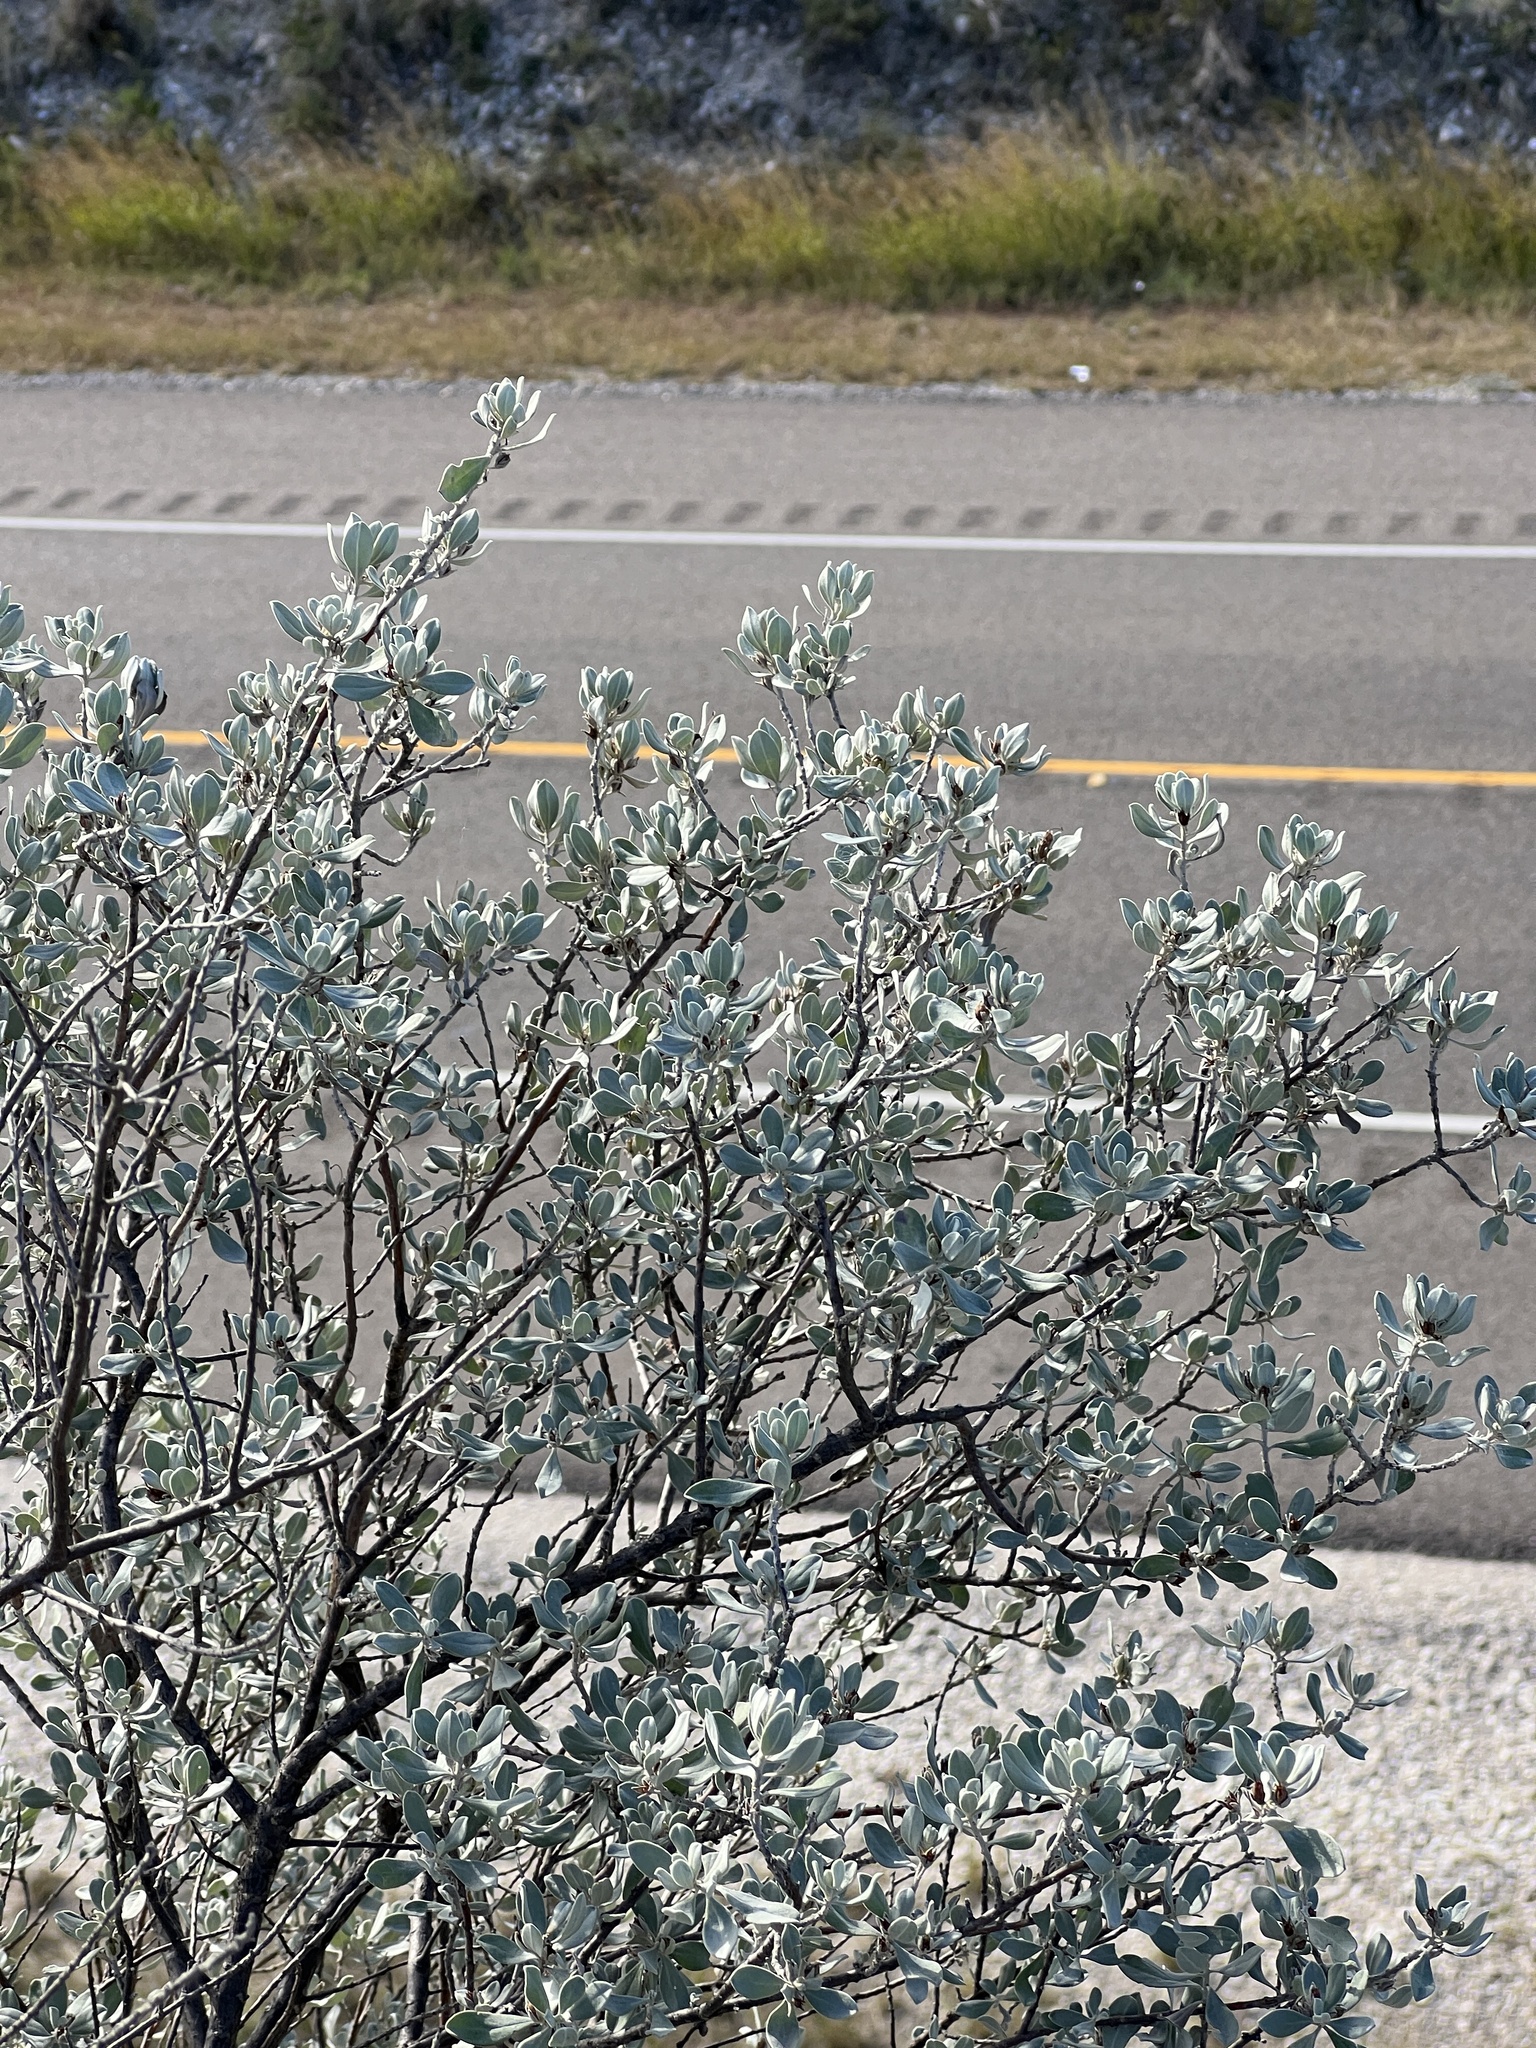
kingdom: Plantae
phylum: Tracheophyta
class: Magnoliopsida
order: Lamiales
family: Scrophulariaceae
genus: Leucophyllum
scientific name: Leucophyllum frutescens
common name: Texas silverleaf
